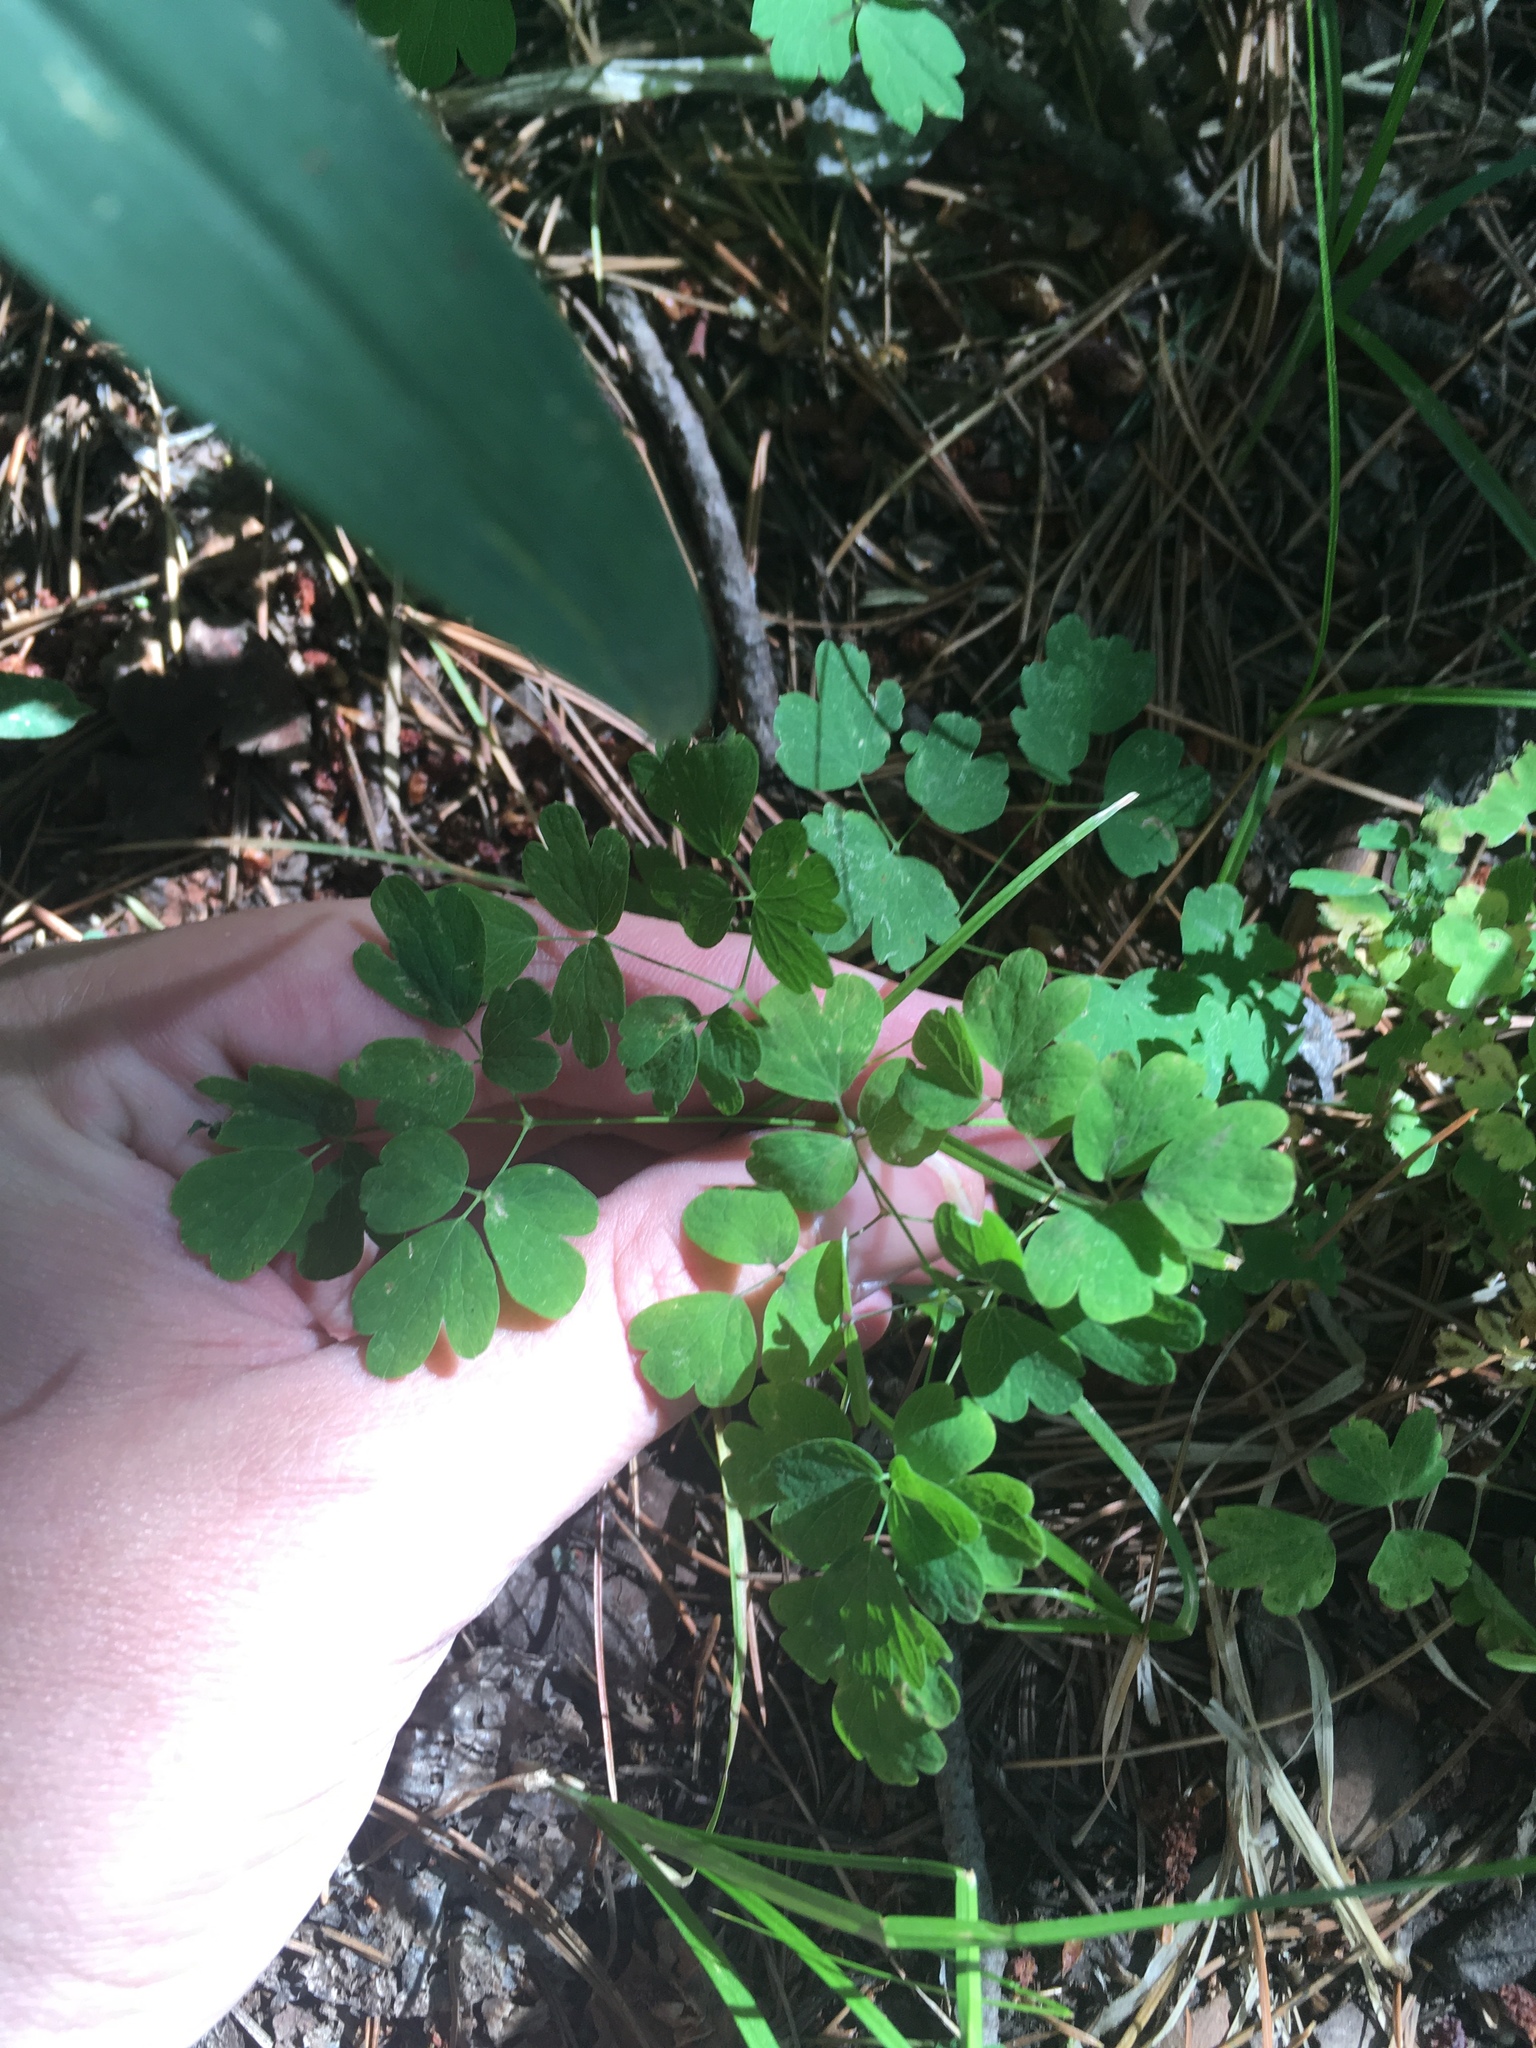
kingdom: Plantae
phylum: Tracheophyta
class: Magnoliopsida
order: Ranunculales
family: Ranunculaceae
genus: Thalictrum
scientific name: Thalictrum fendleri
